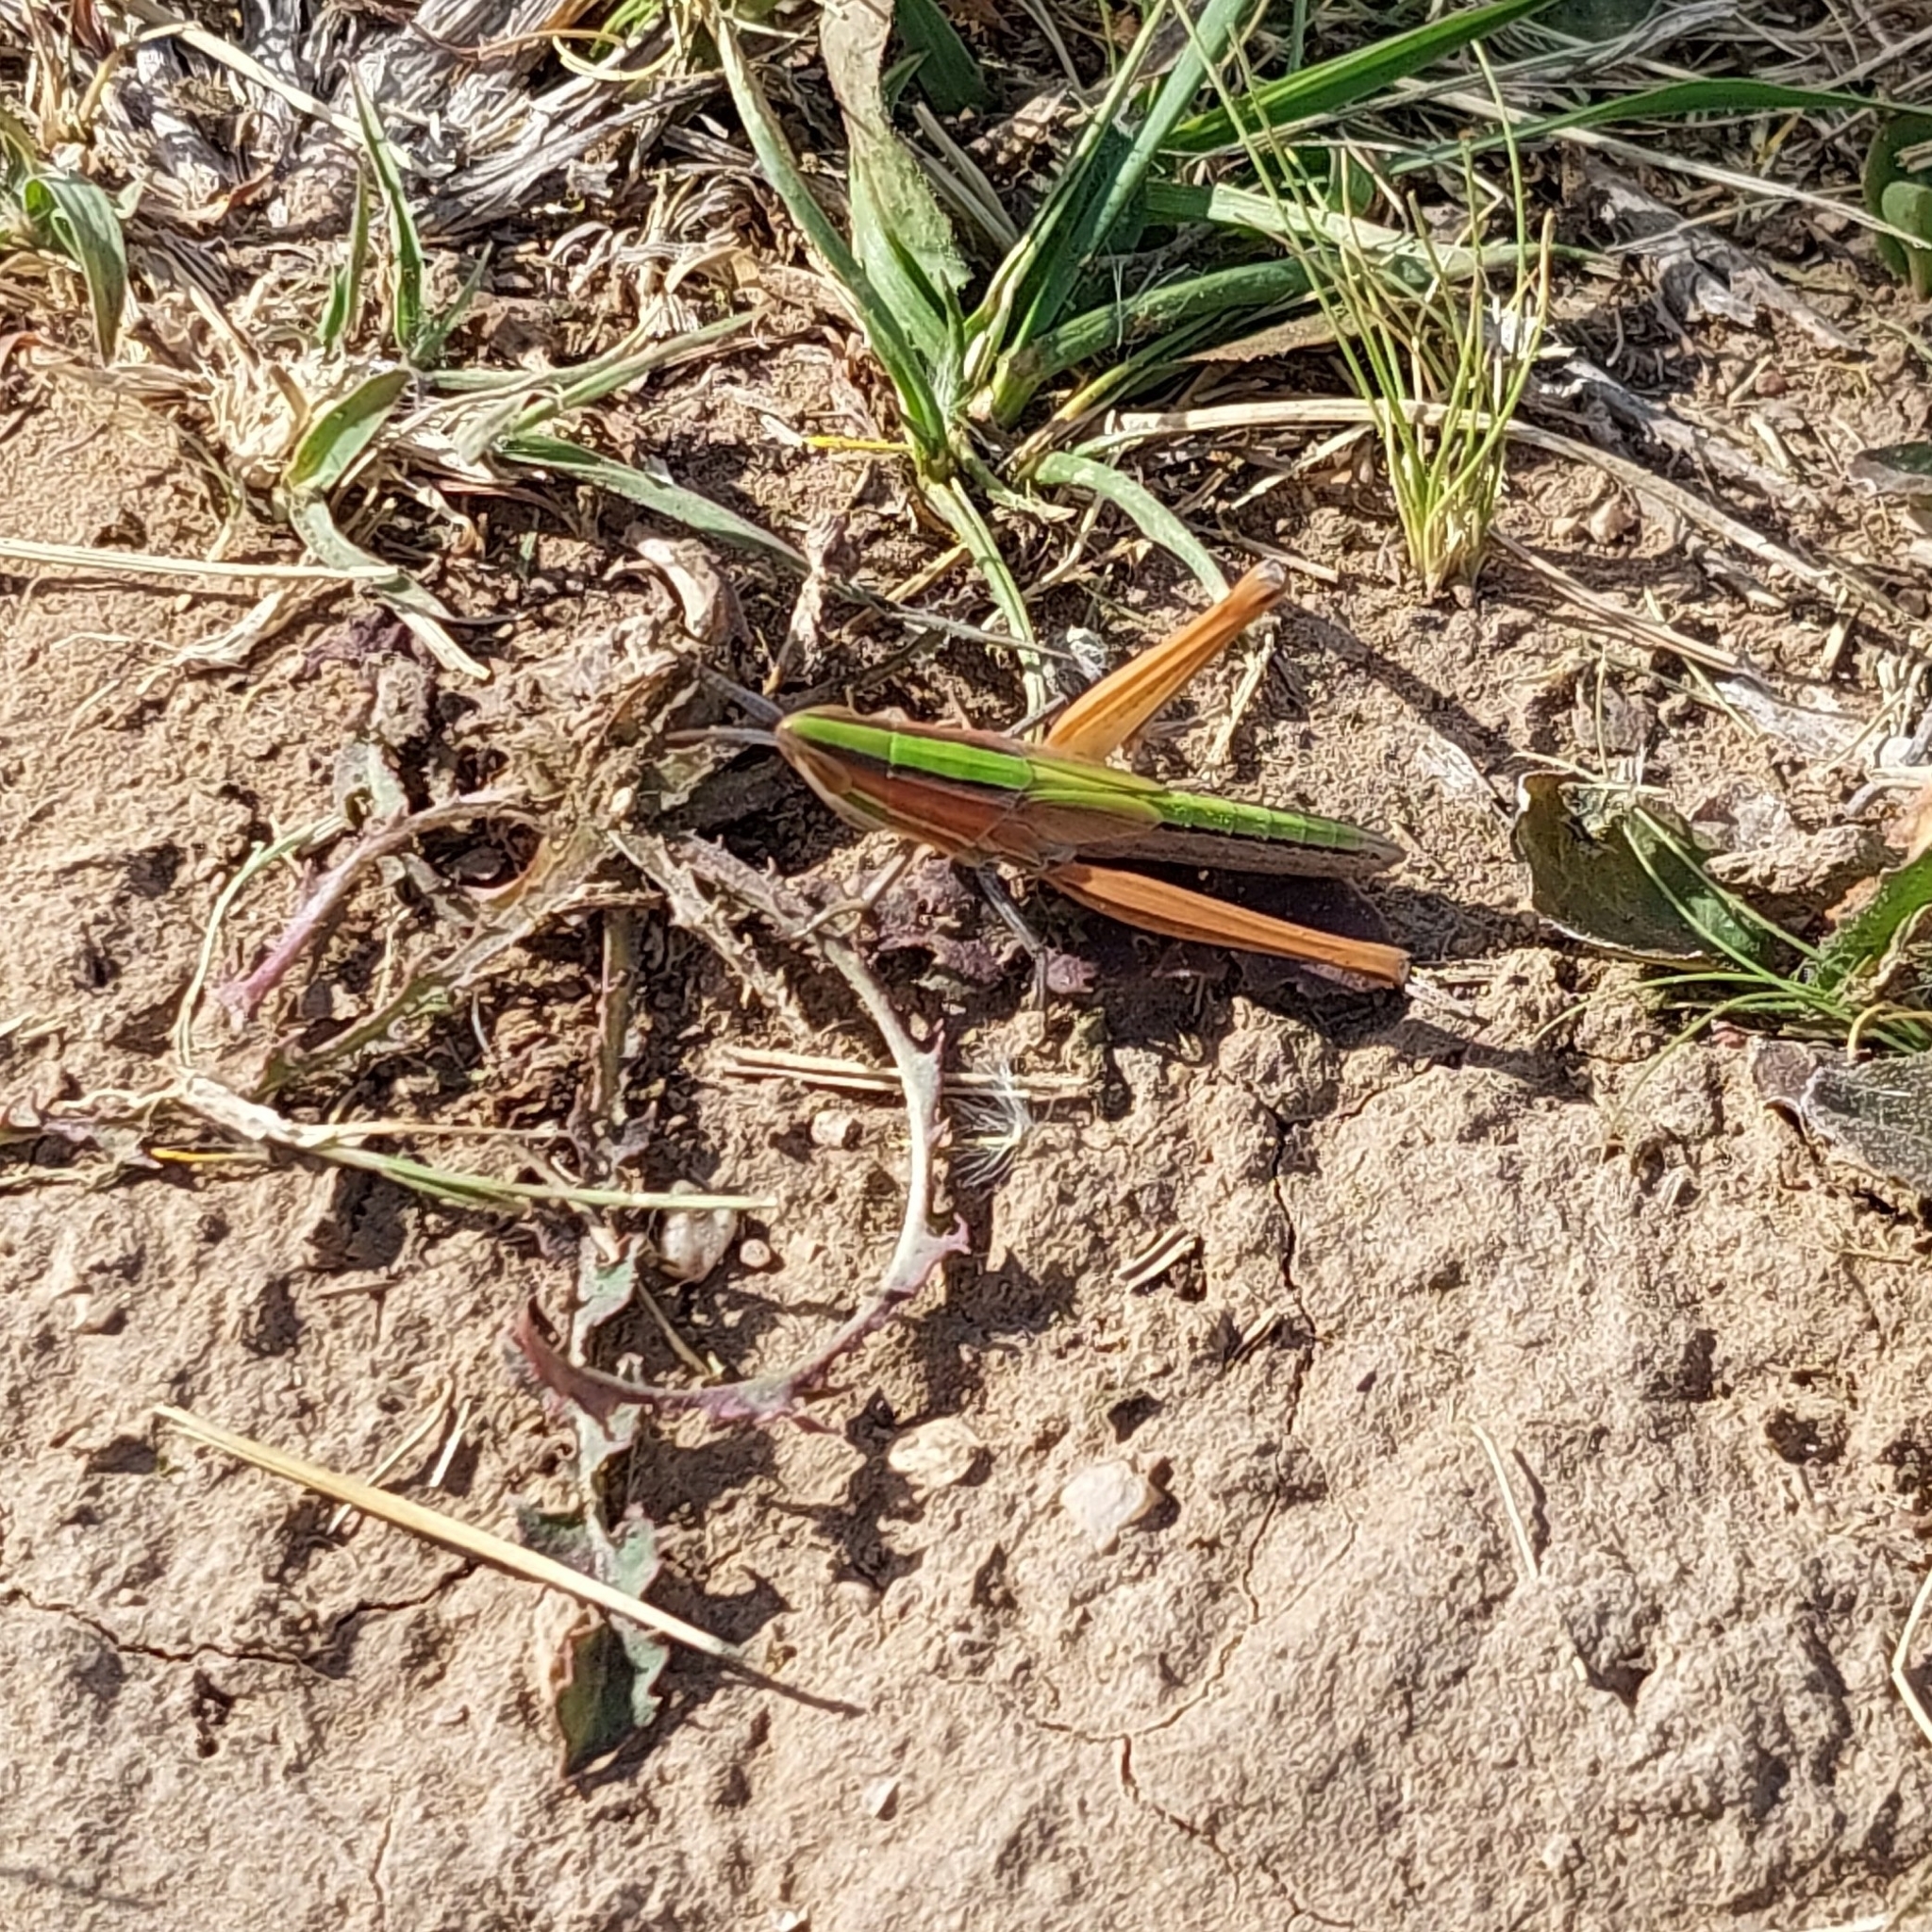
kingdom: Animalia
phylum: Arthropoda
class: Insecta
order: Orthoptera
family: Acrididae
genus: Sinipta
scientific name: Sinipta dalmani
